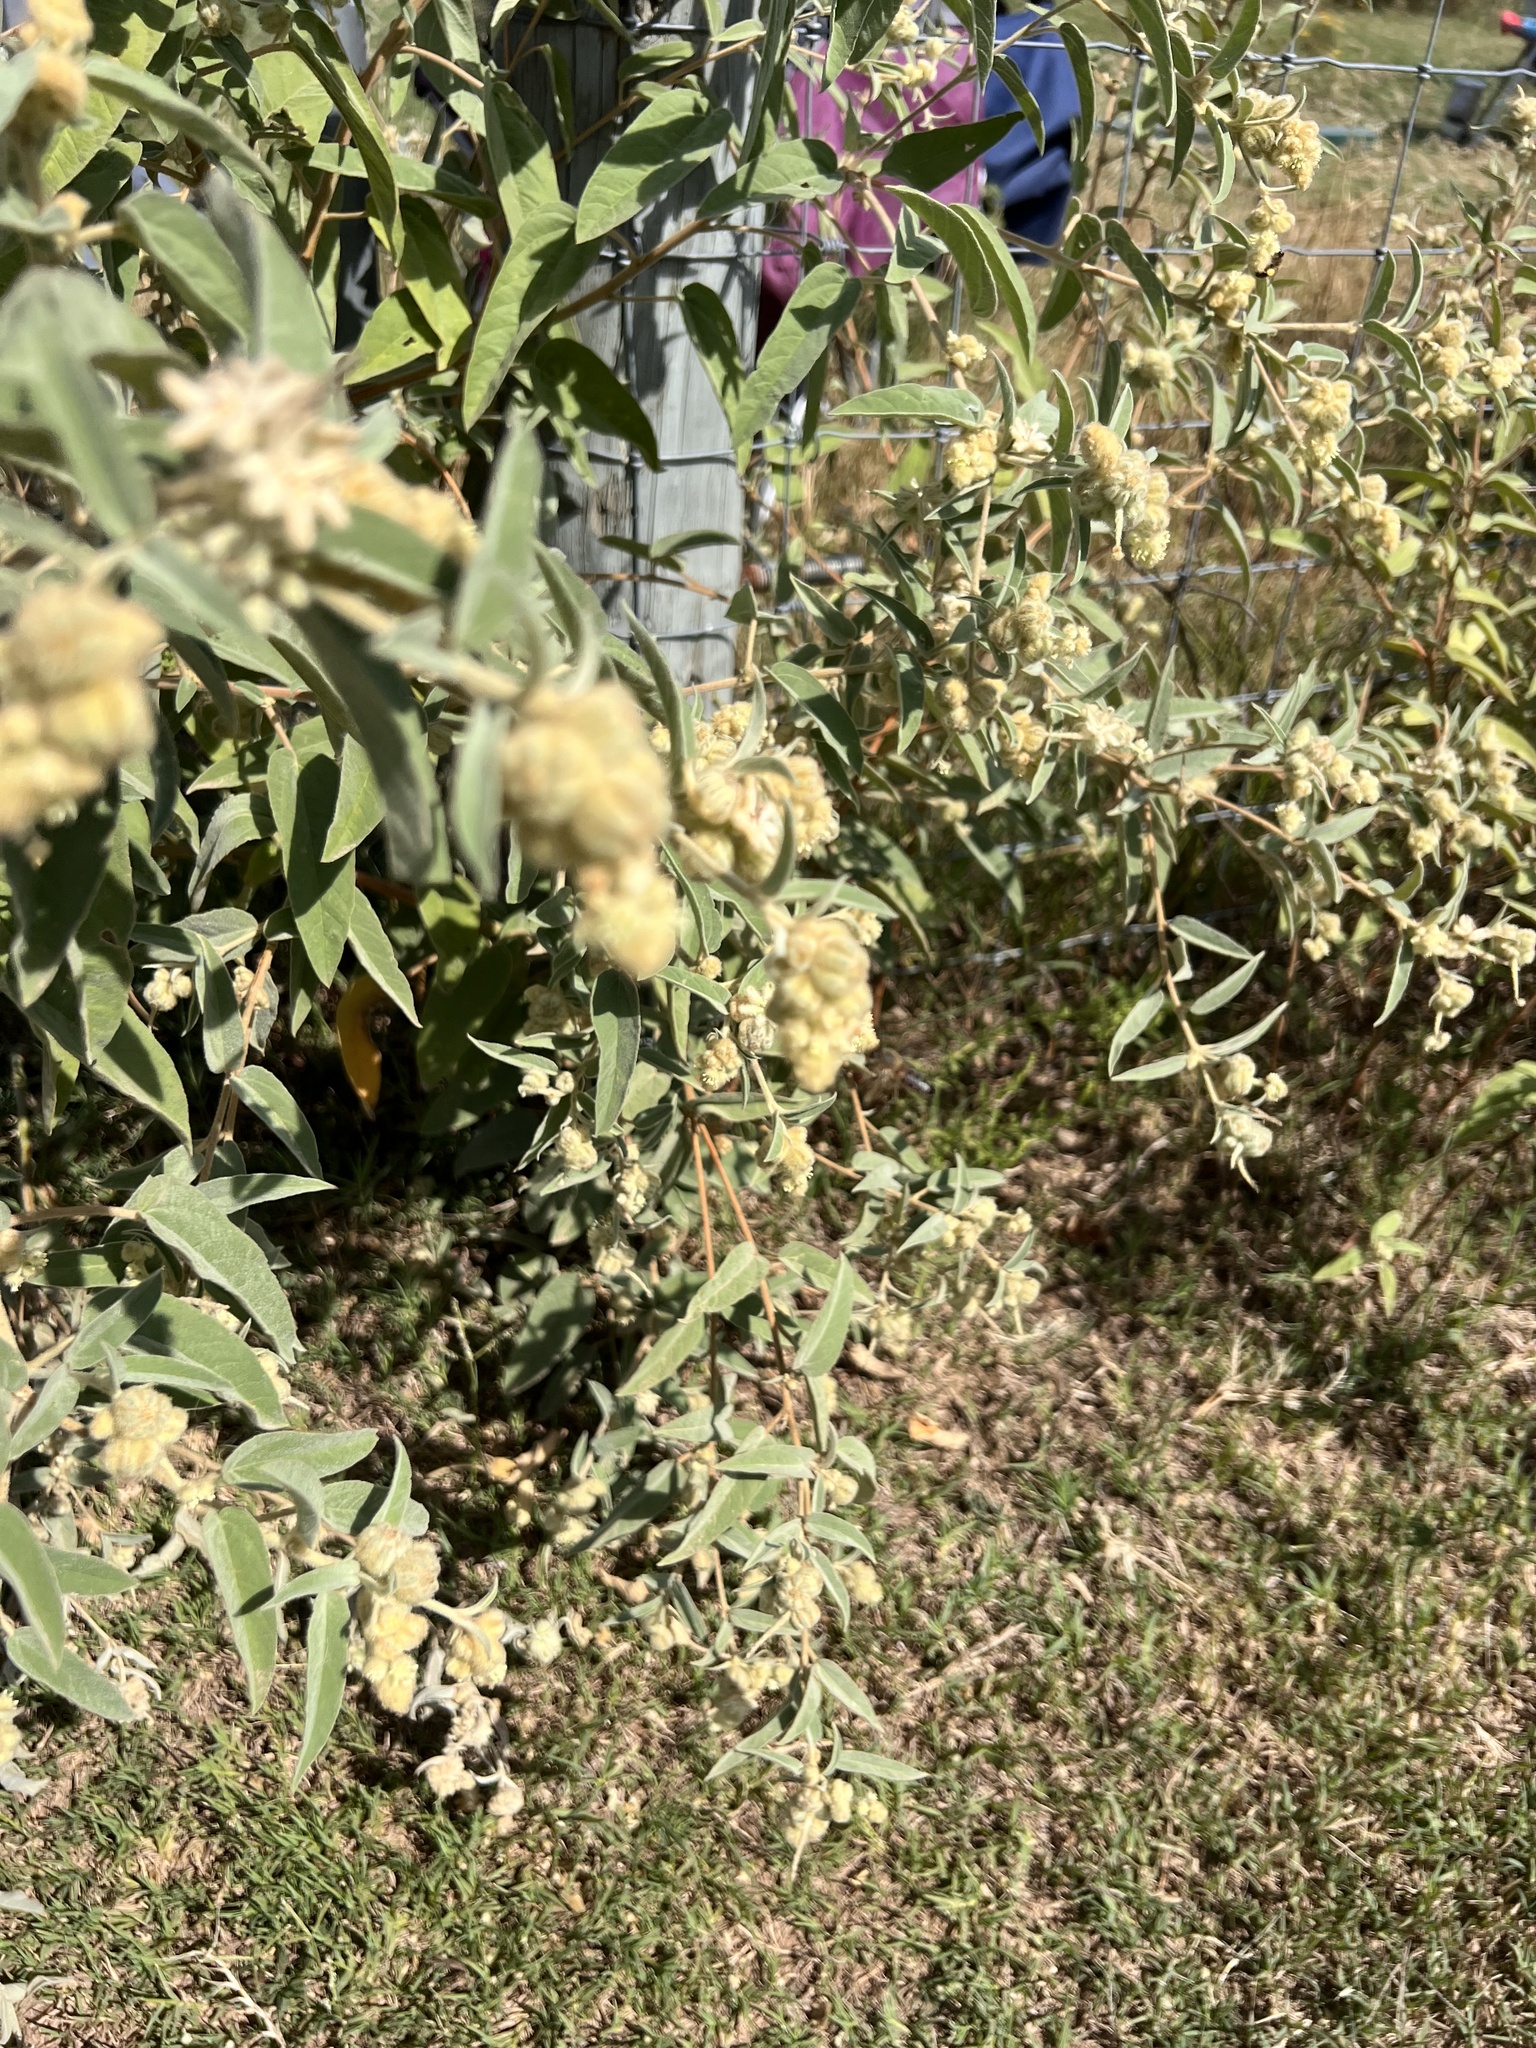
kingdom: Plantae
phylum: Tracheophyta
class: Magnoliopsida
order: Malpighiales
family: Euphorbiaceae
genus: Croton
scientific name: Croton lindheimeri
